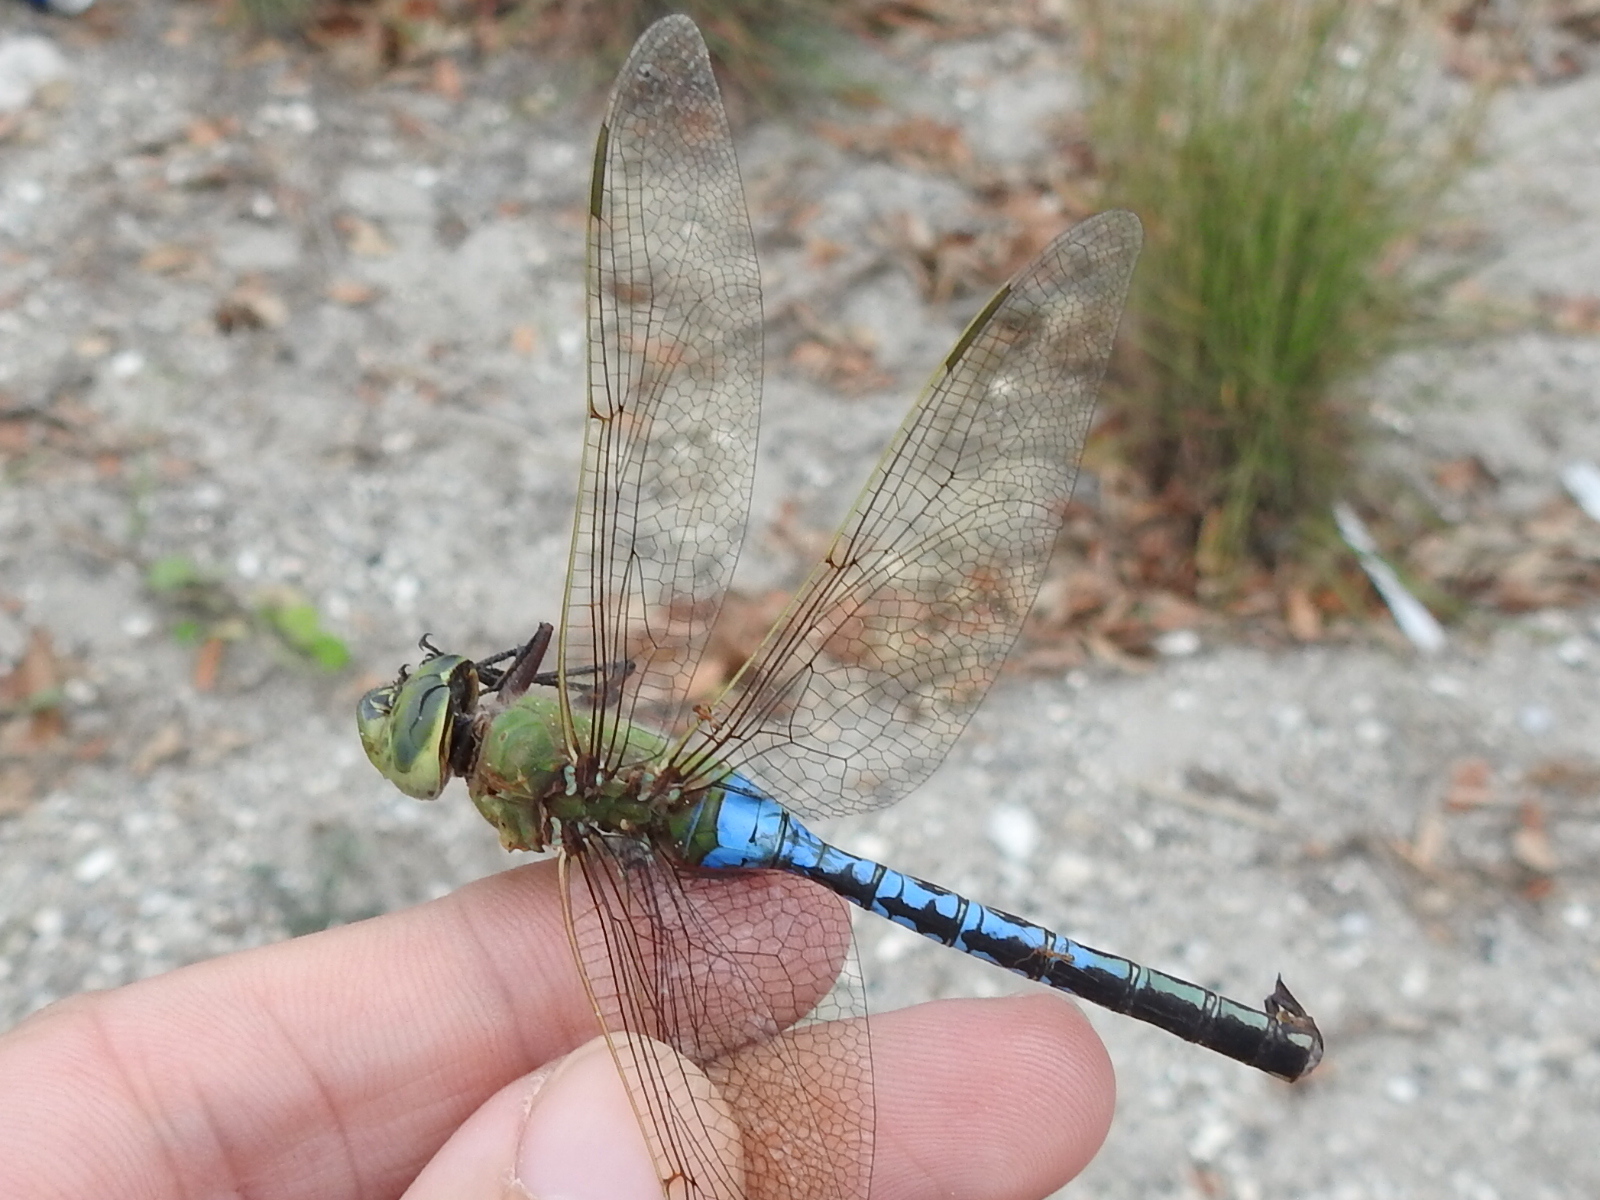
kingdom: Animalia
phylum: Arthropoda
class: Insecta
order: Odonata
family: Aeshnidae
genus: Anax
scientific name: Anax junius
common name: Common green darner
